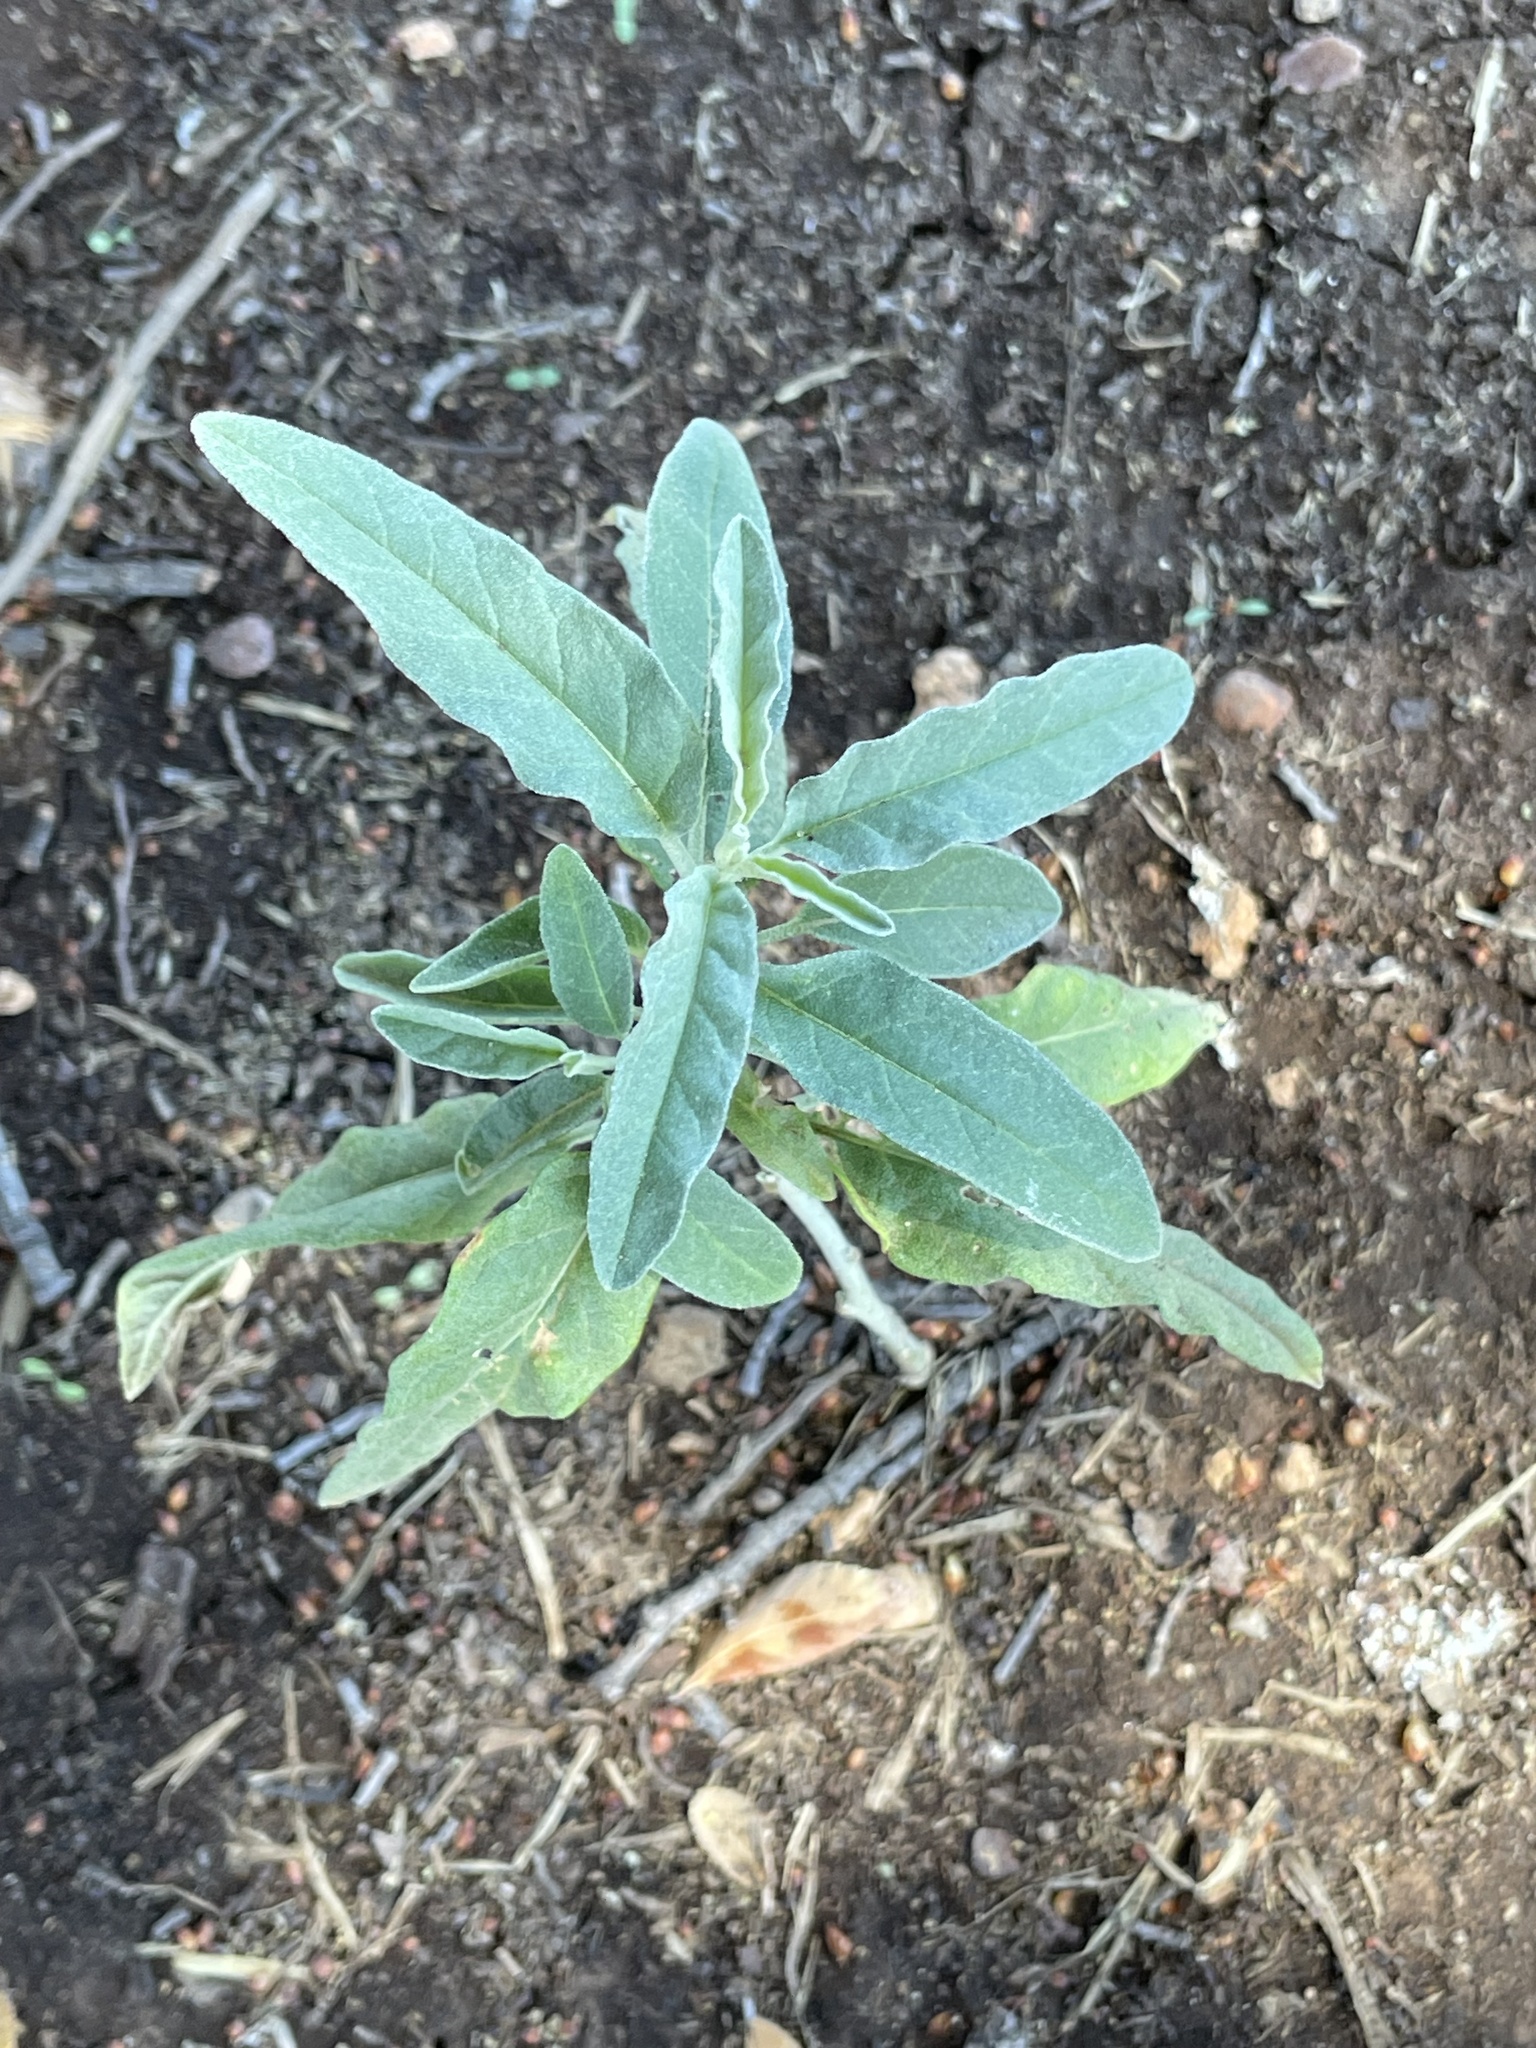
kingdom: Plantae
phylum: Tracheophyta
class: Magnoliopsida
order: Solanales
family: Solanaceae
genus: Solanum
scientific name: Solanum elaeagnifolium
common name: Silverleaf nightshade
